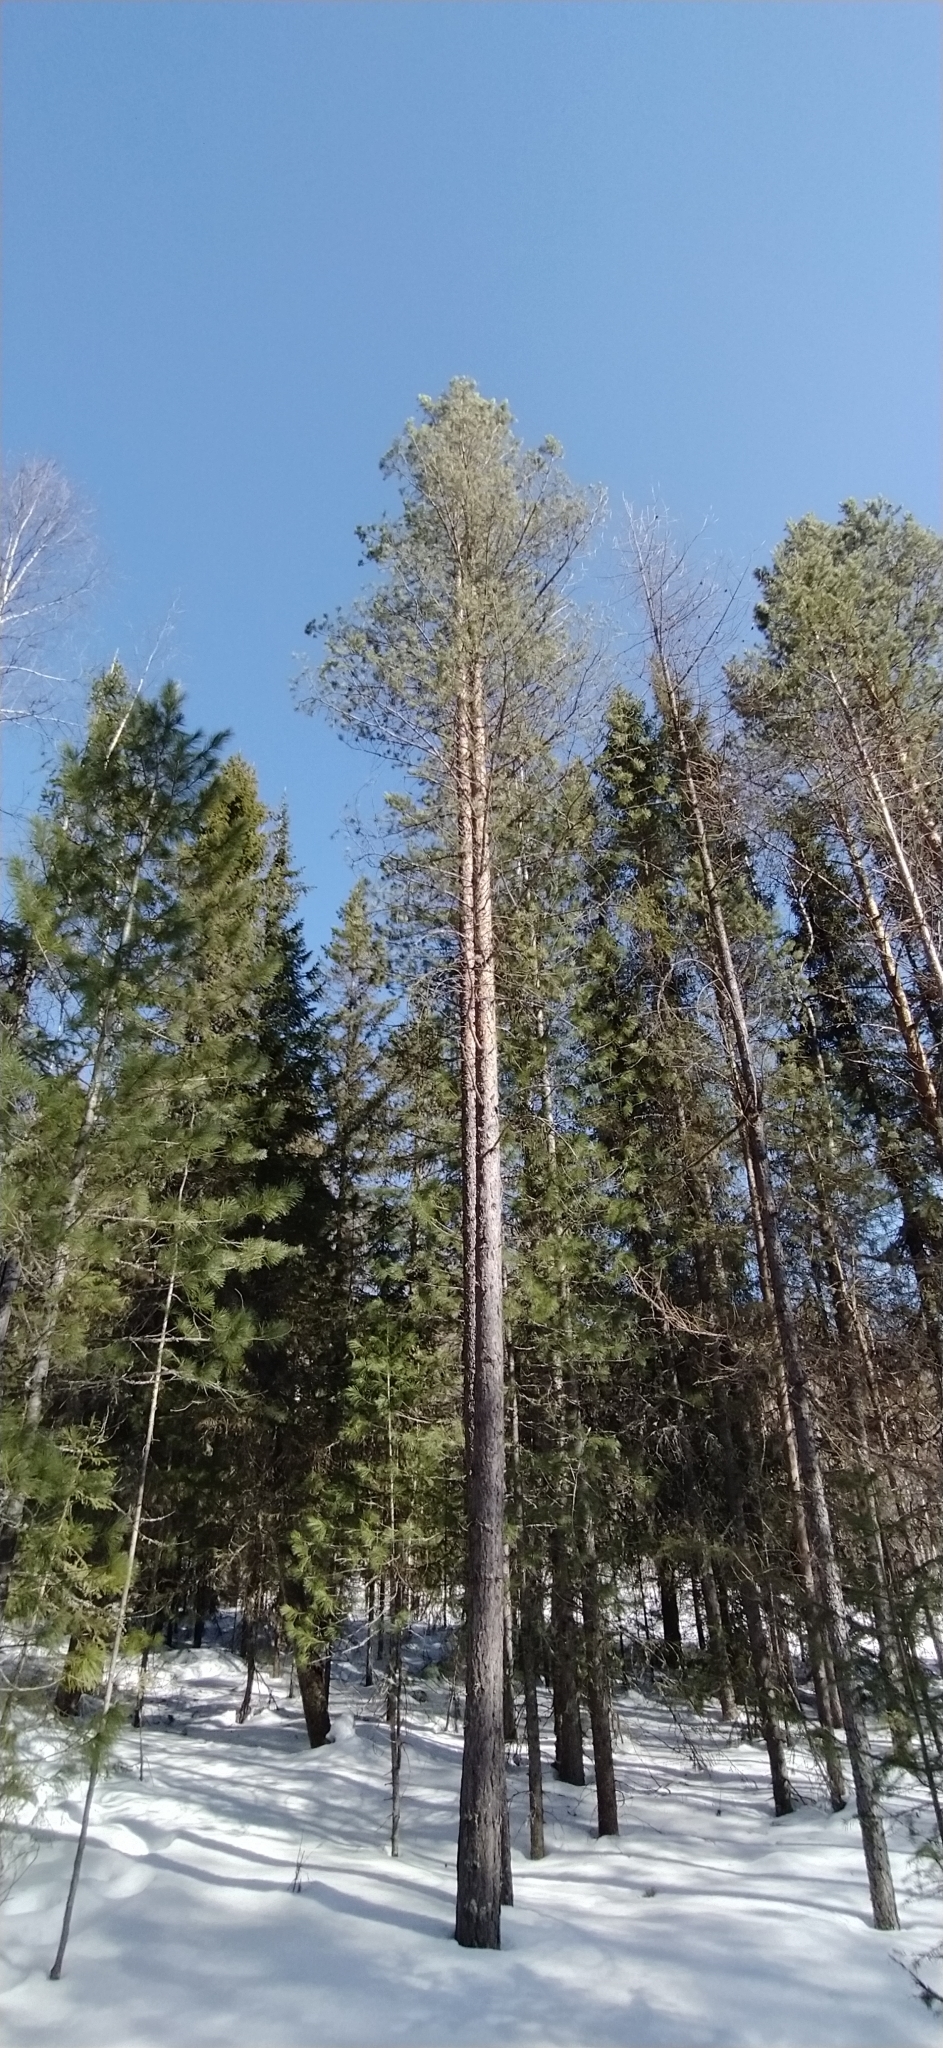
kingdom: Plantae
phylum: Tracheophyta
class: Pinopsida
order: Pinales
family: Pinaceae
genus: Pinus
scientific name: Pinus sylvestris
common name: Scots pine
